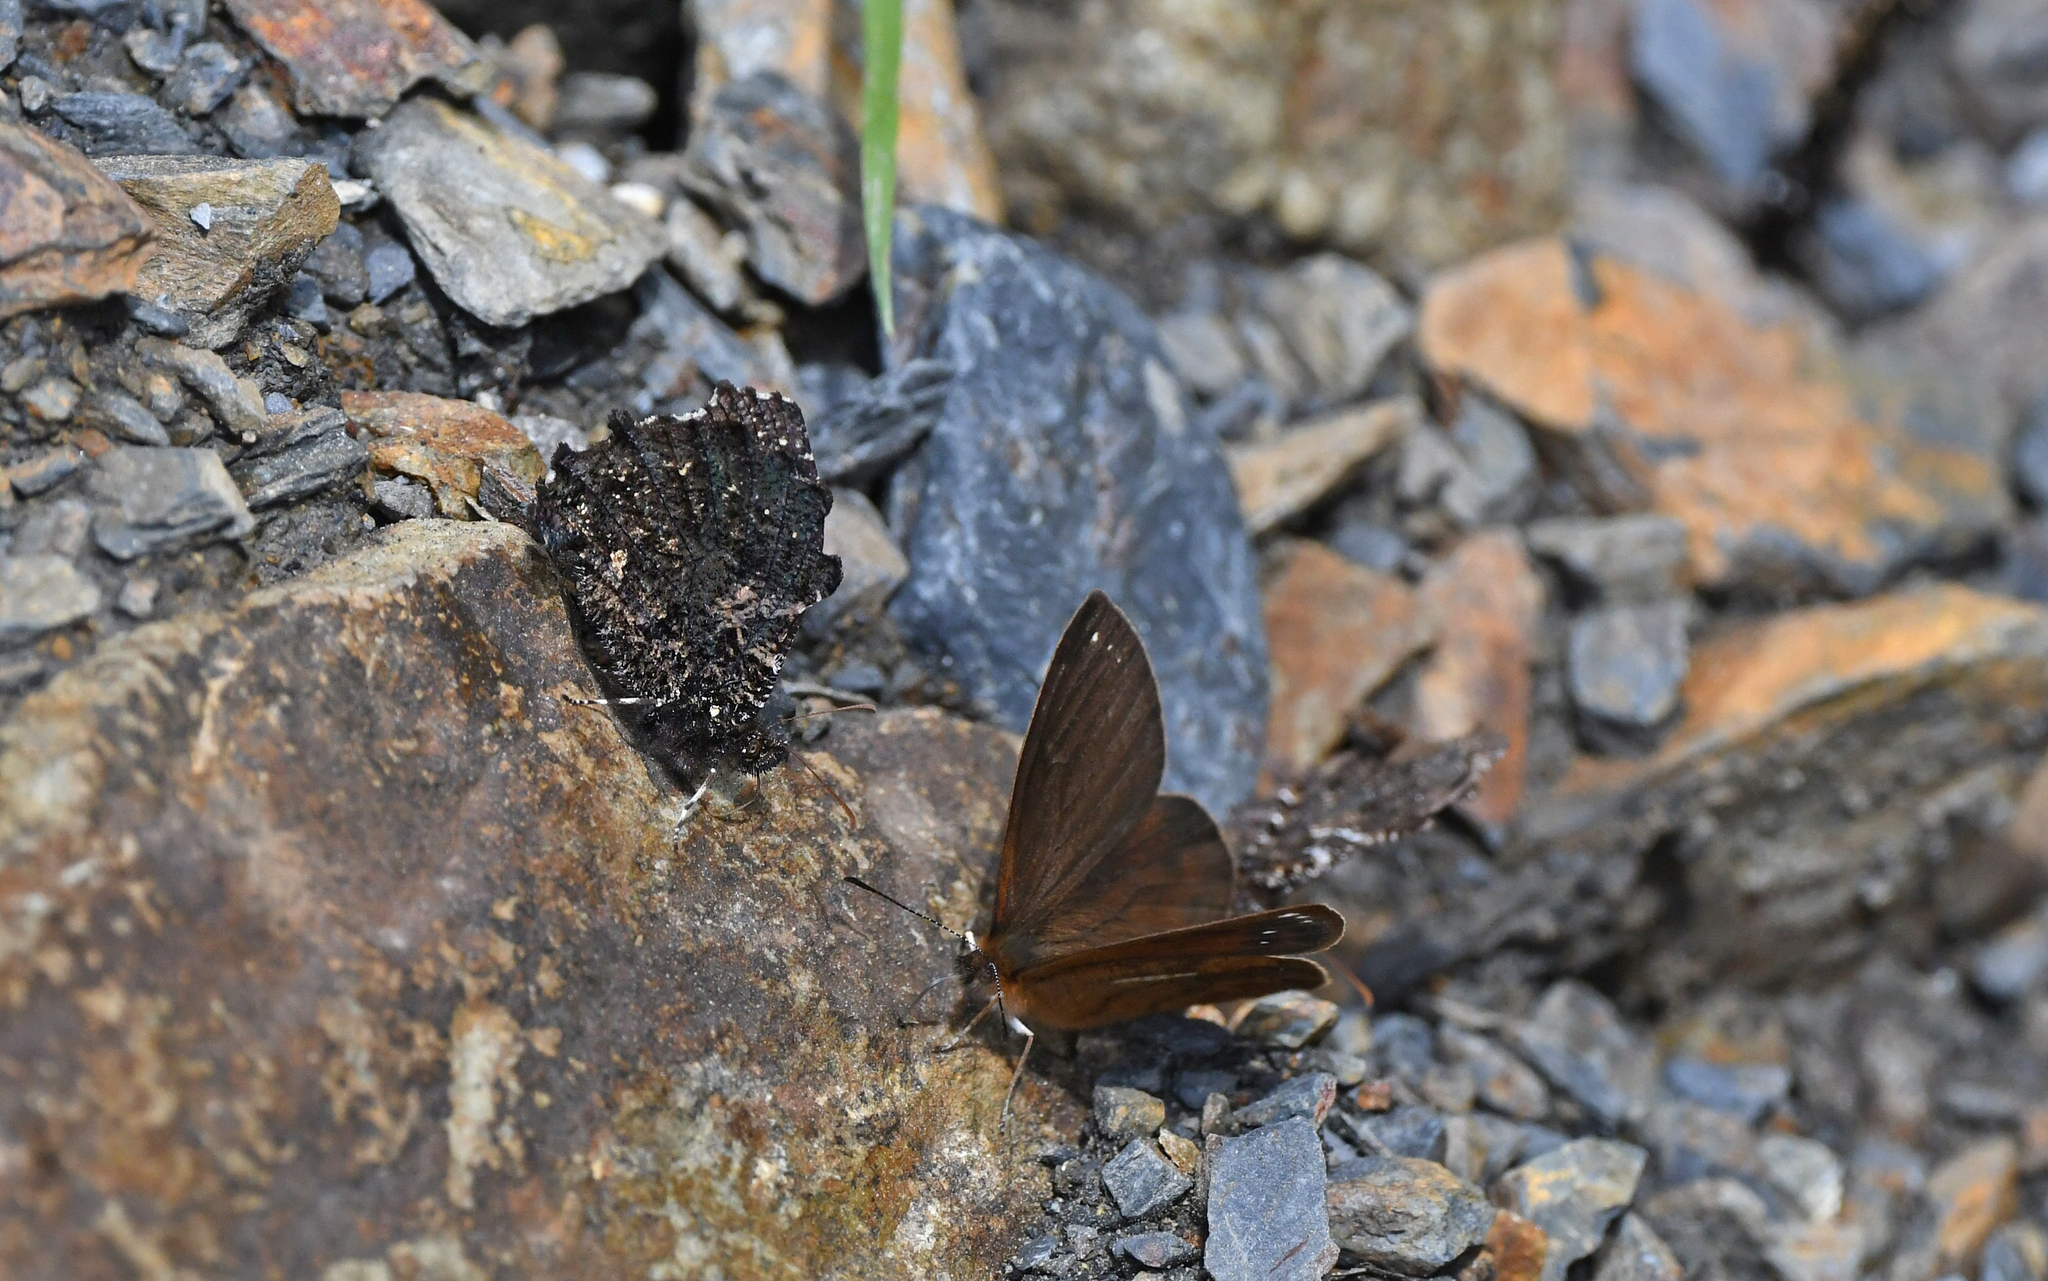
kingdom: Animalia
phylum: Arthropoda
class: Insecta
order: Lepidoptera
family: Nymphalidae
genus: Steroma
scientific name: Steroma bega
